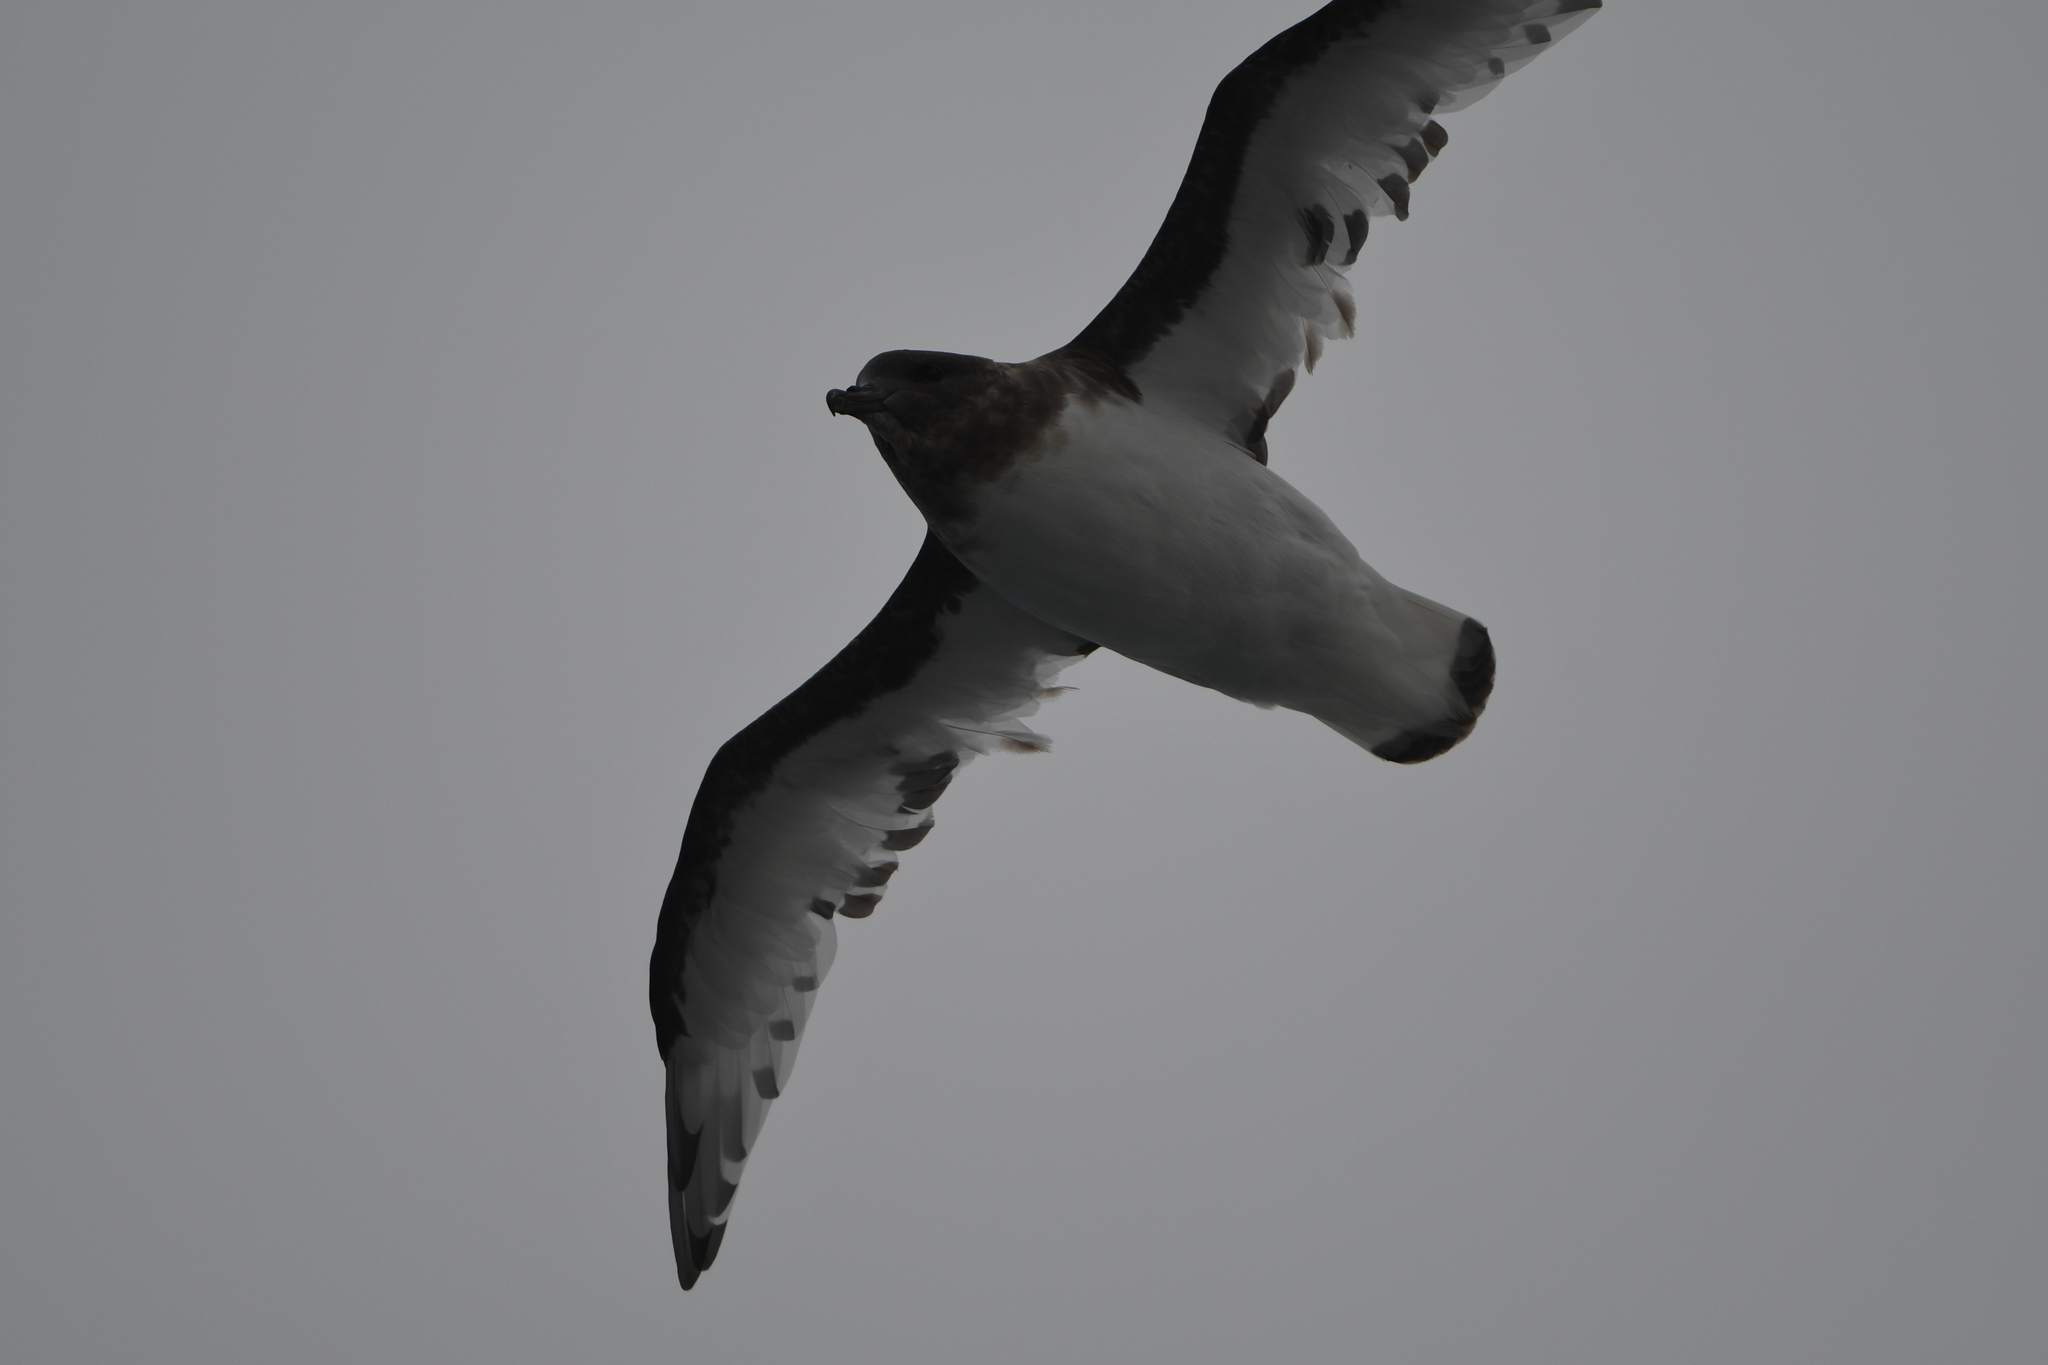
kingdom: Animalia
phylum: Chordata
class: Aves
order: Procellariiformes
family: Procellariidae
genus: Thalassoica
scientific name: Thalassoica antarctica
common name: Antarctic petrel
